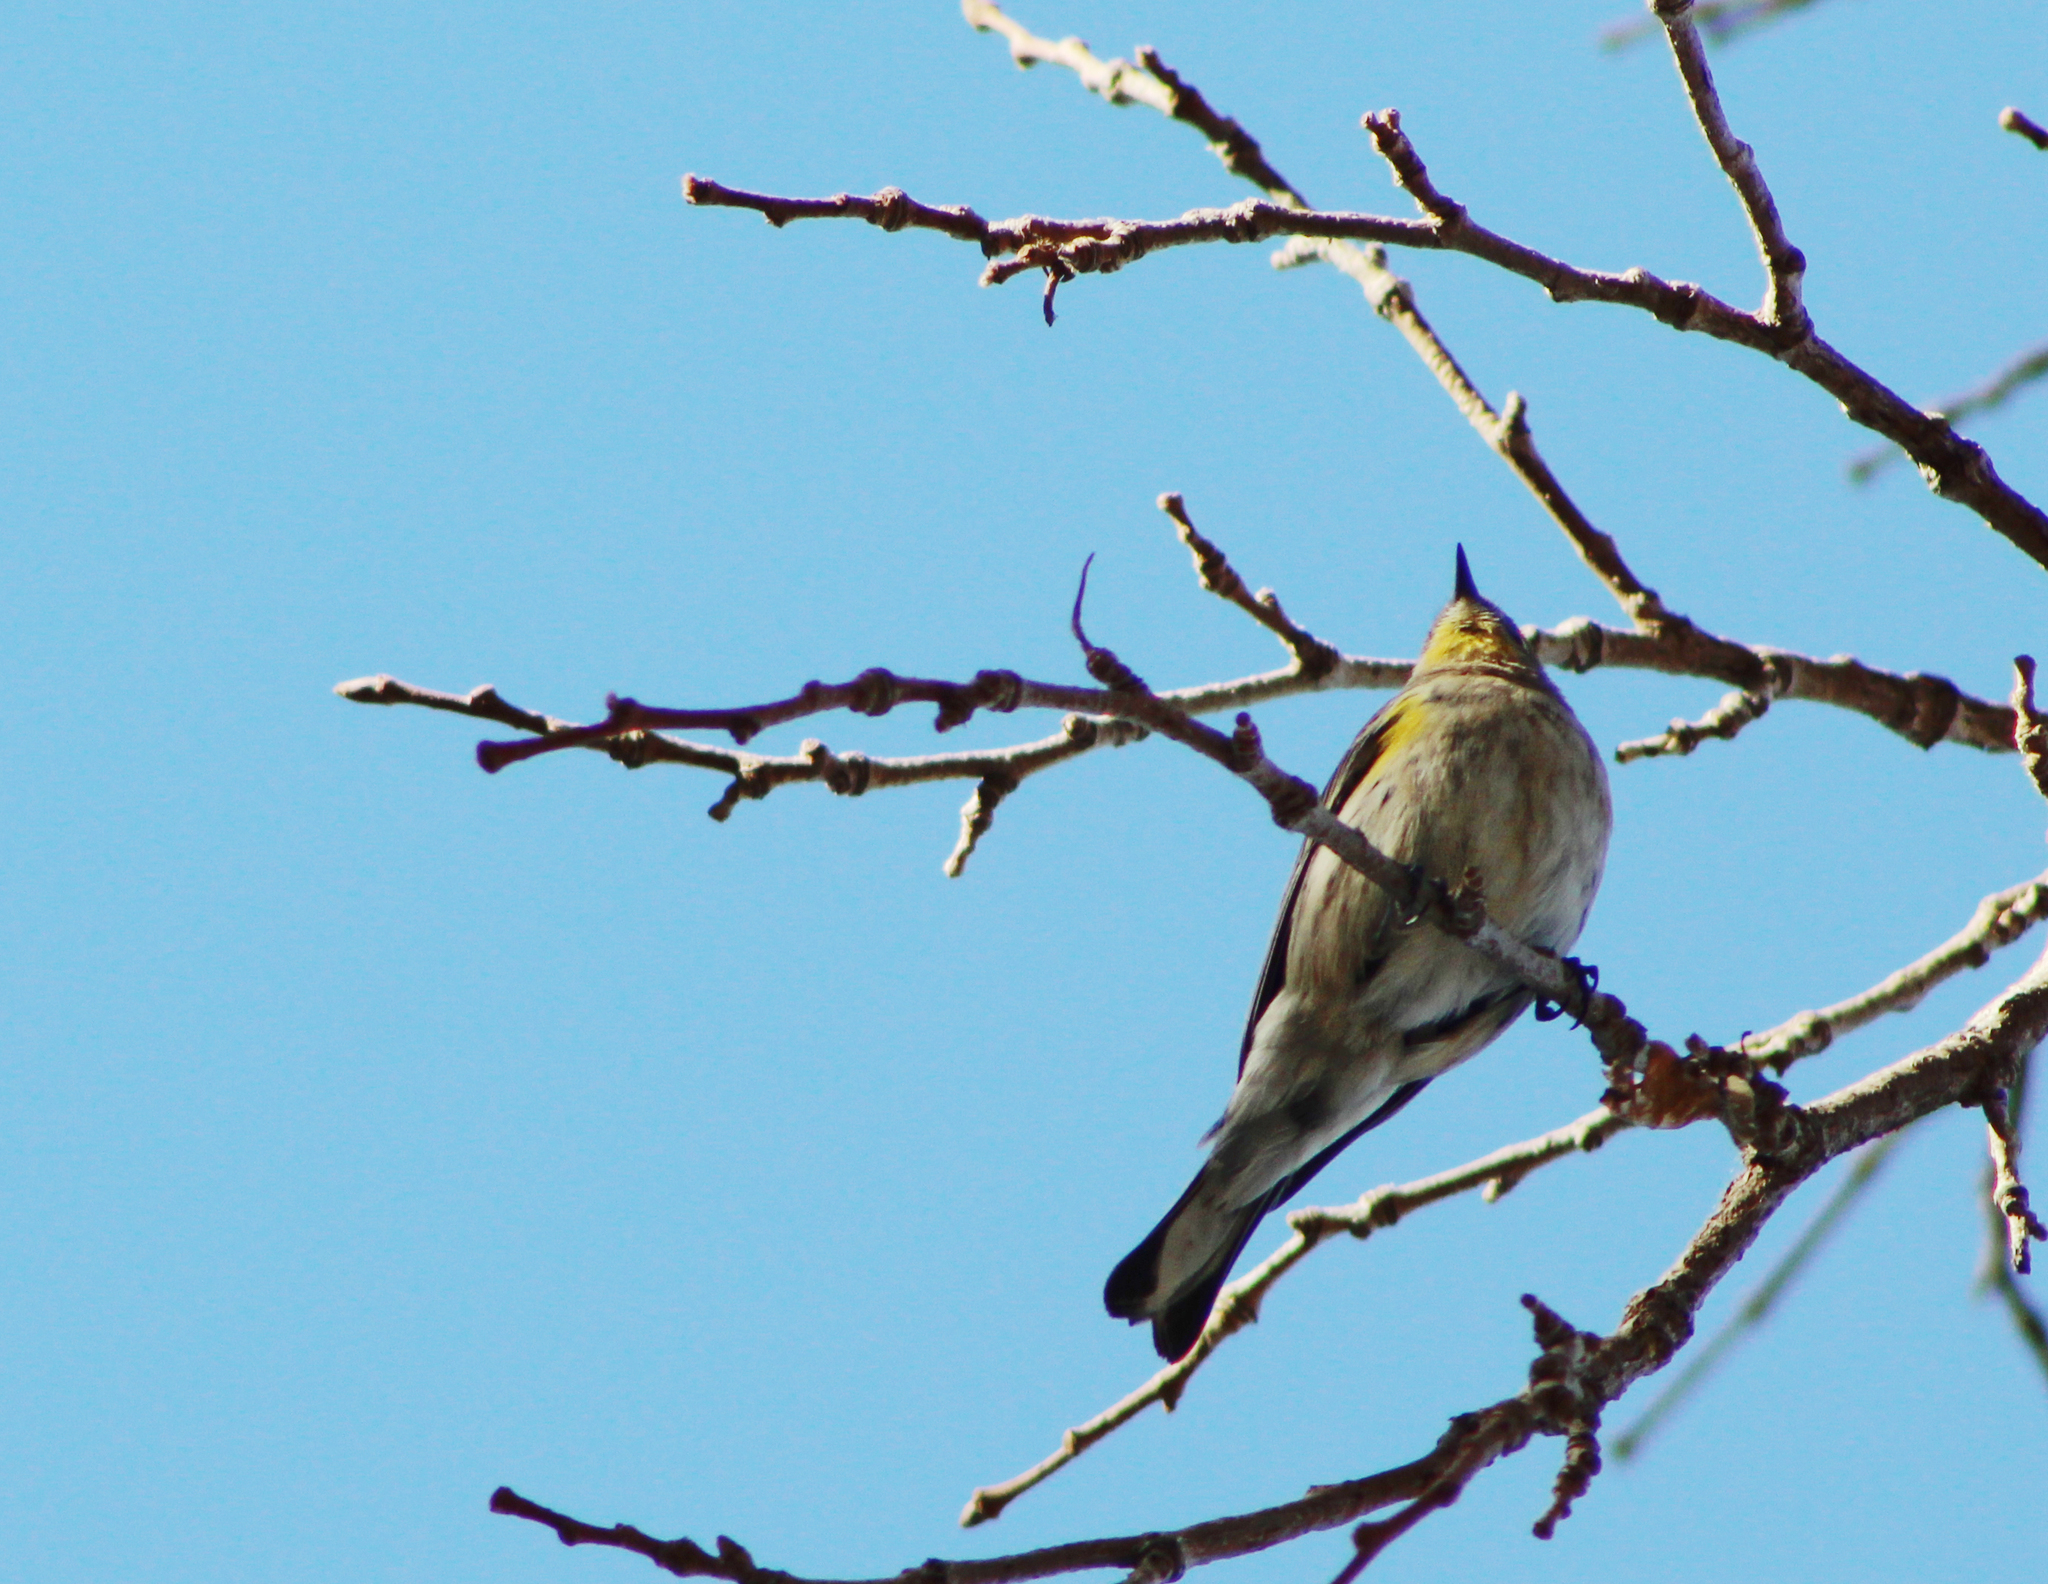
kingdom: Animalia
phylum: Chordata
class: Aves
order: Passeriformes
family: Parulidae
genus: Setophaga
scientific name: Setophaga coronata
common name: Myrtle warbler
